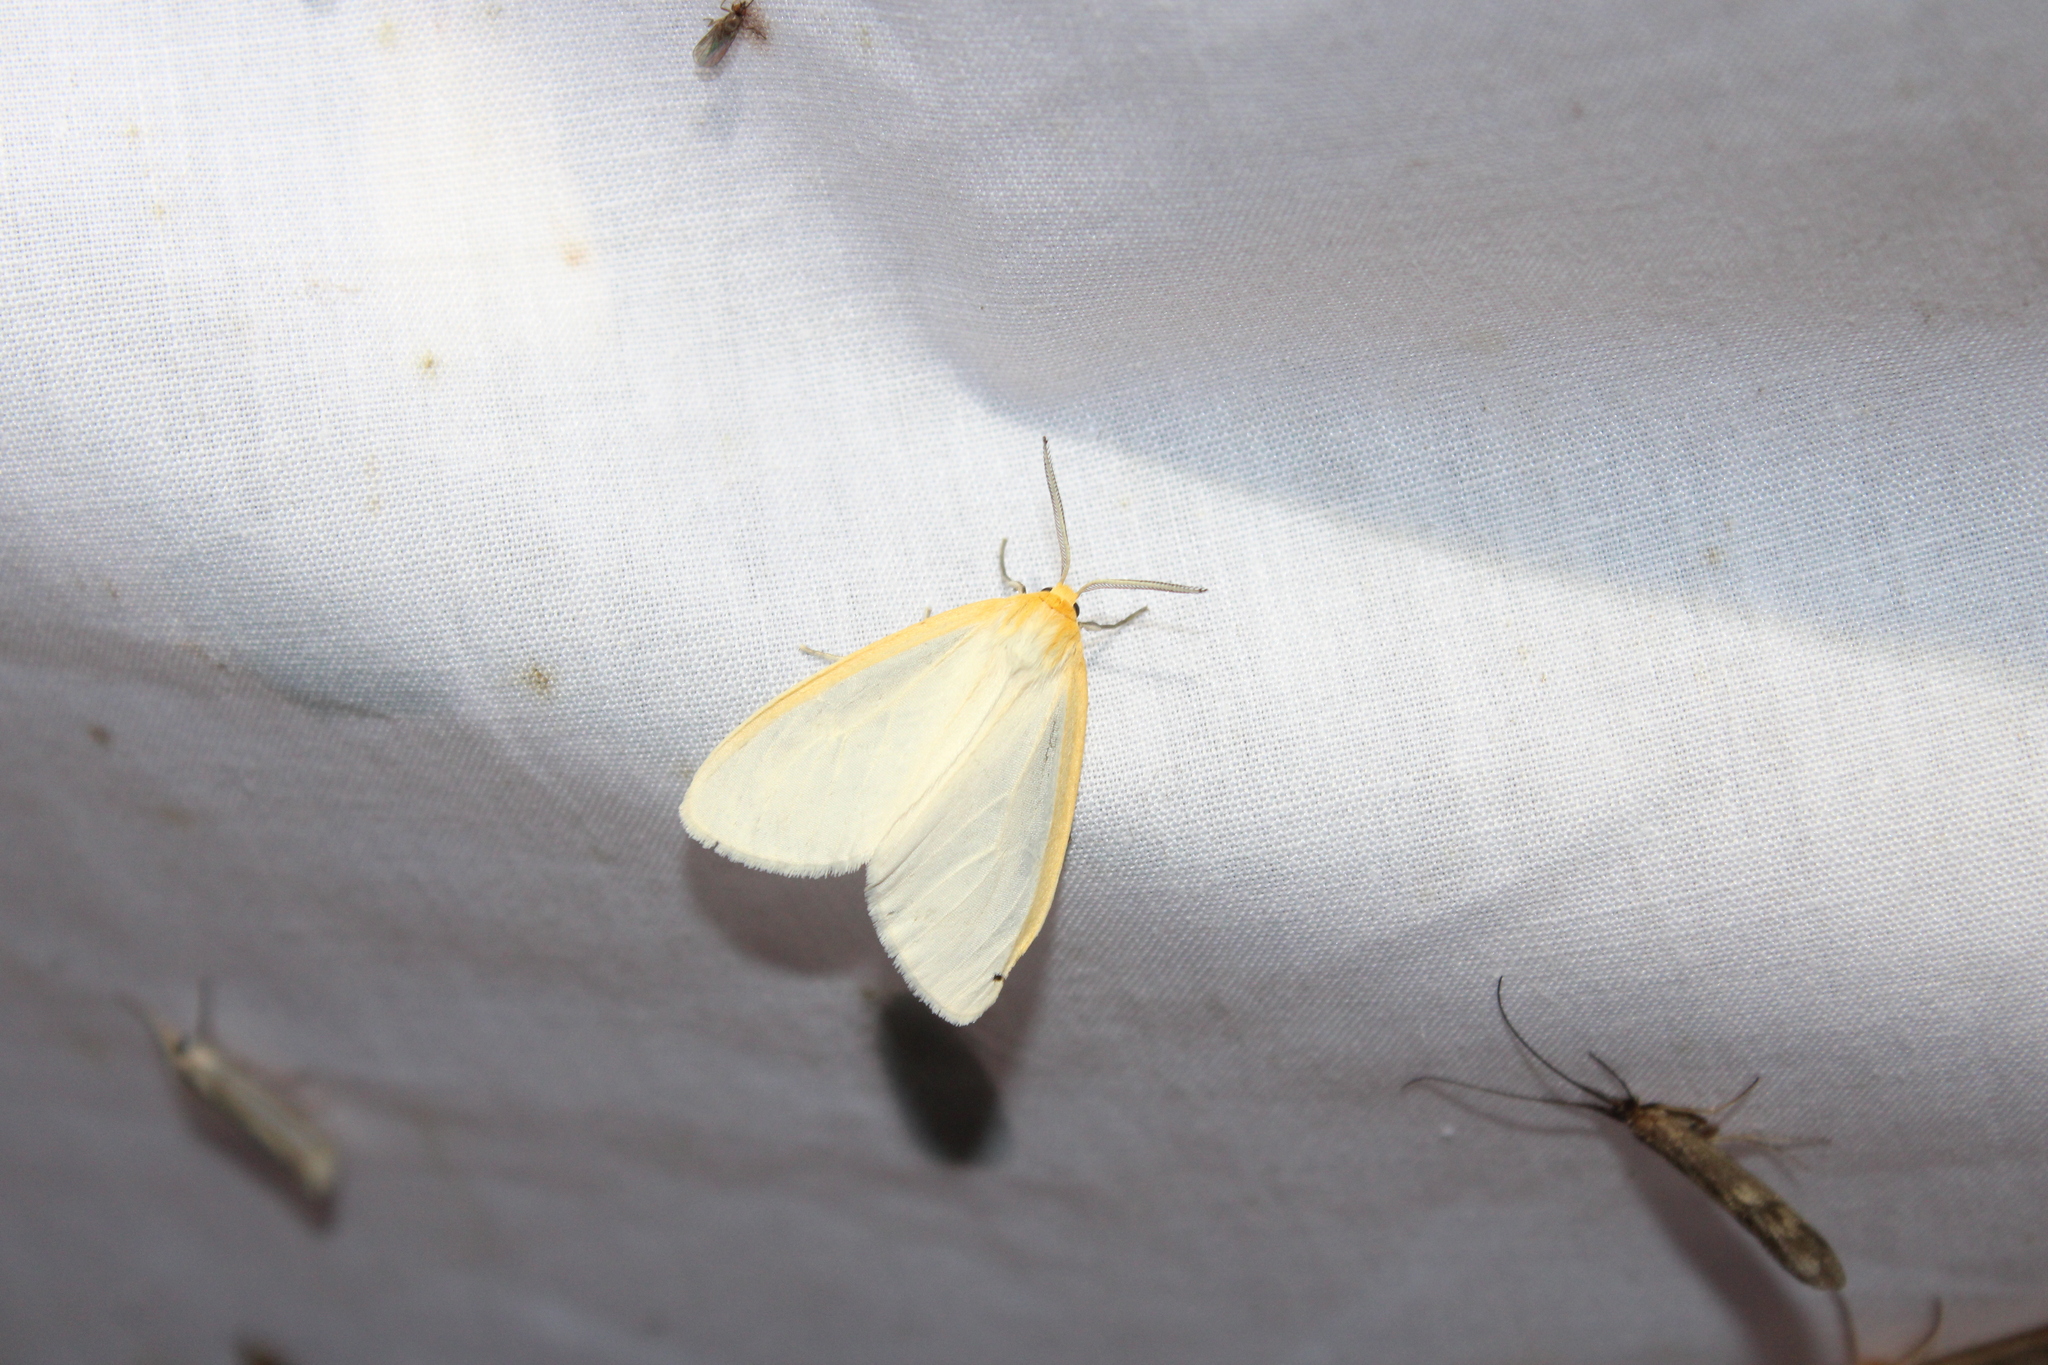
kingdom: Animalia
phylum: Arthropoda
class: Insecta
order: Lepidoptera
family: Erebidae
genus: Cycnia
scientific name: Cycnia tenera
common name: Delicate cycnia moth
